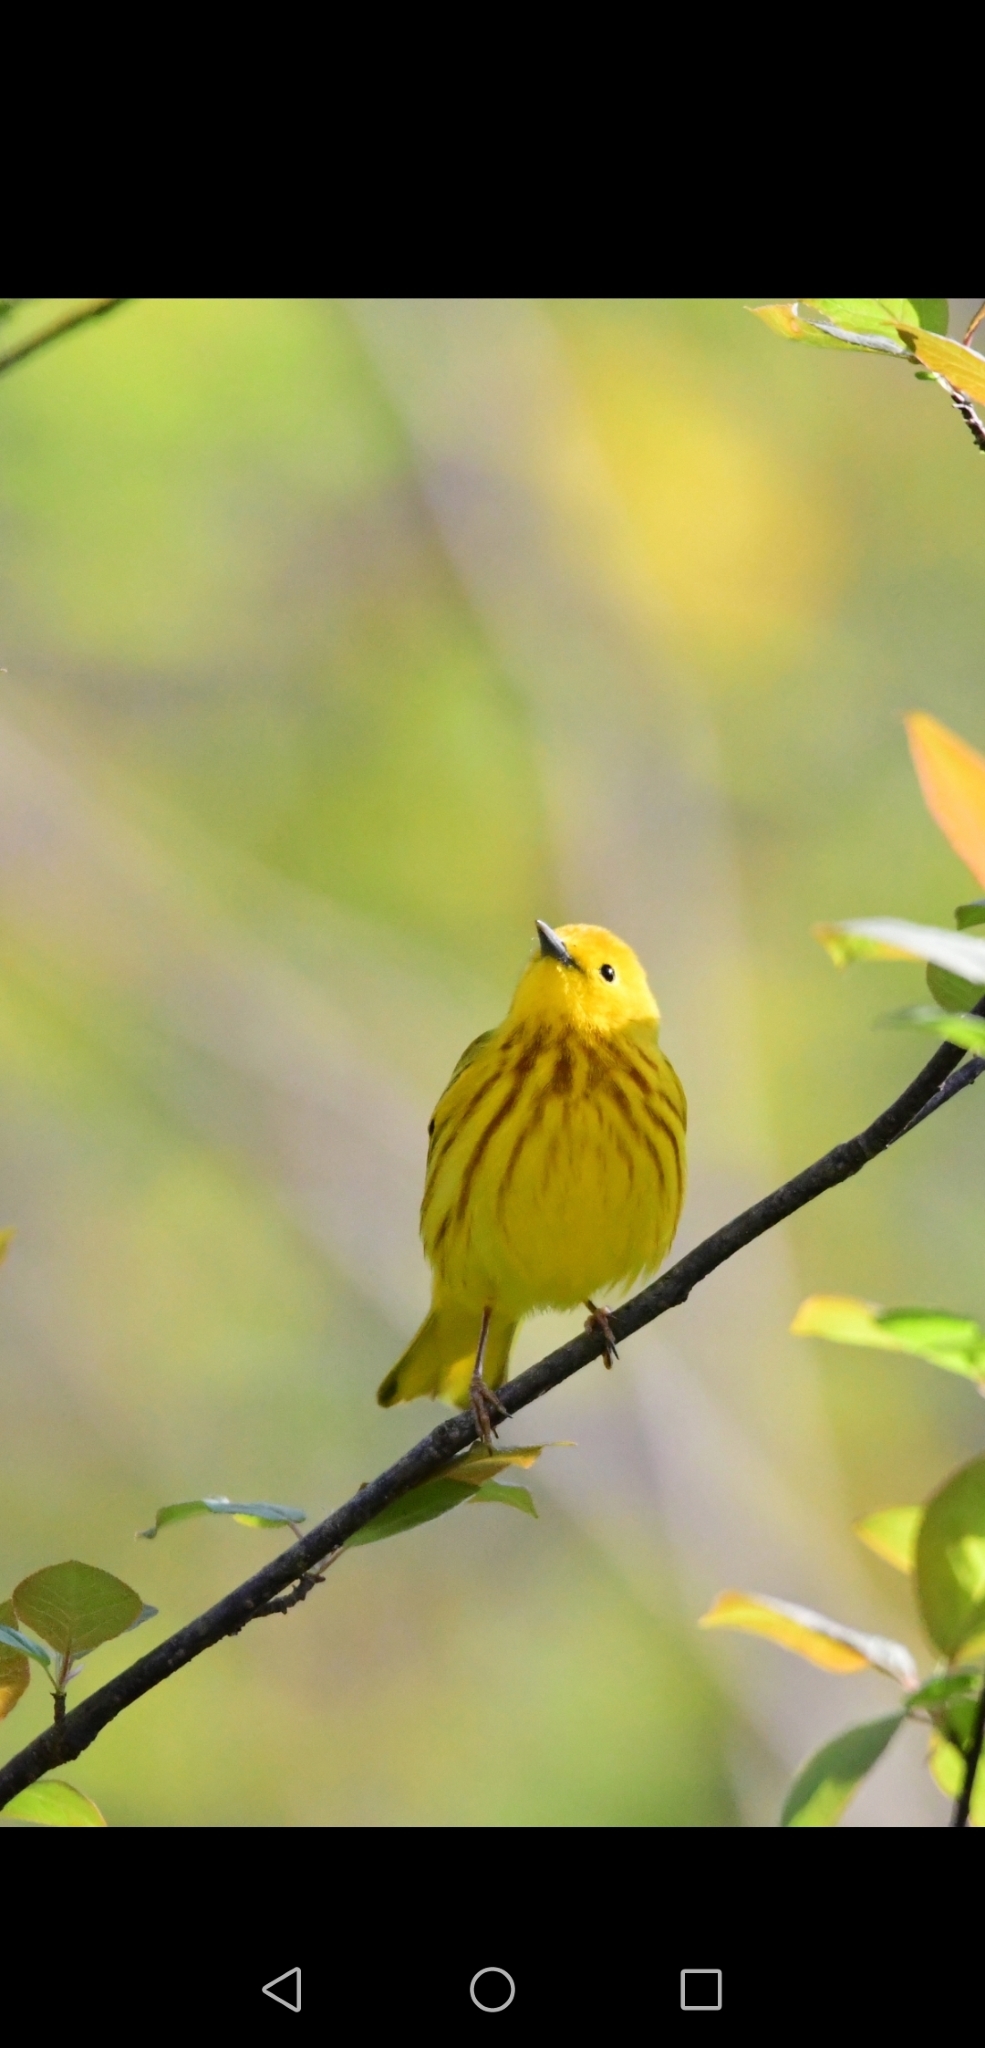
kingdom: Animalia
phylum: Chordata
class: Aves
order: Passeriformes
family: Parulidae
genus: Setophaga
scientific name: Setophaga petechia
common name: Yellow warbler
